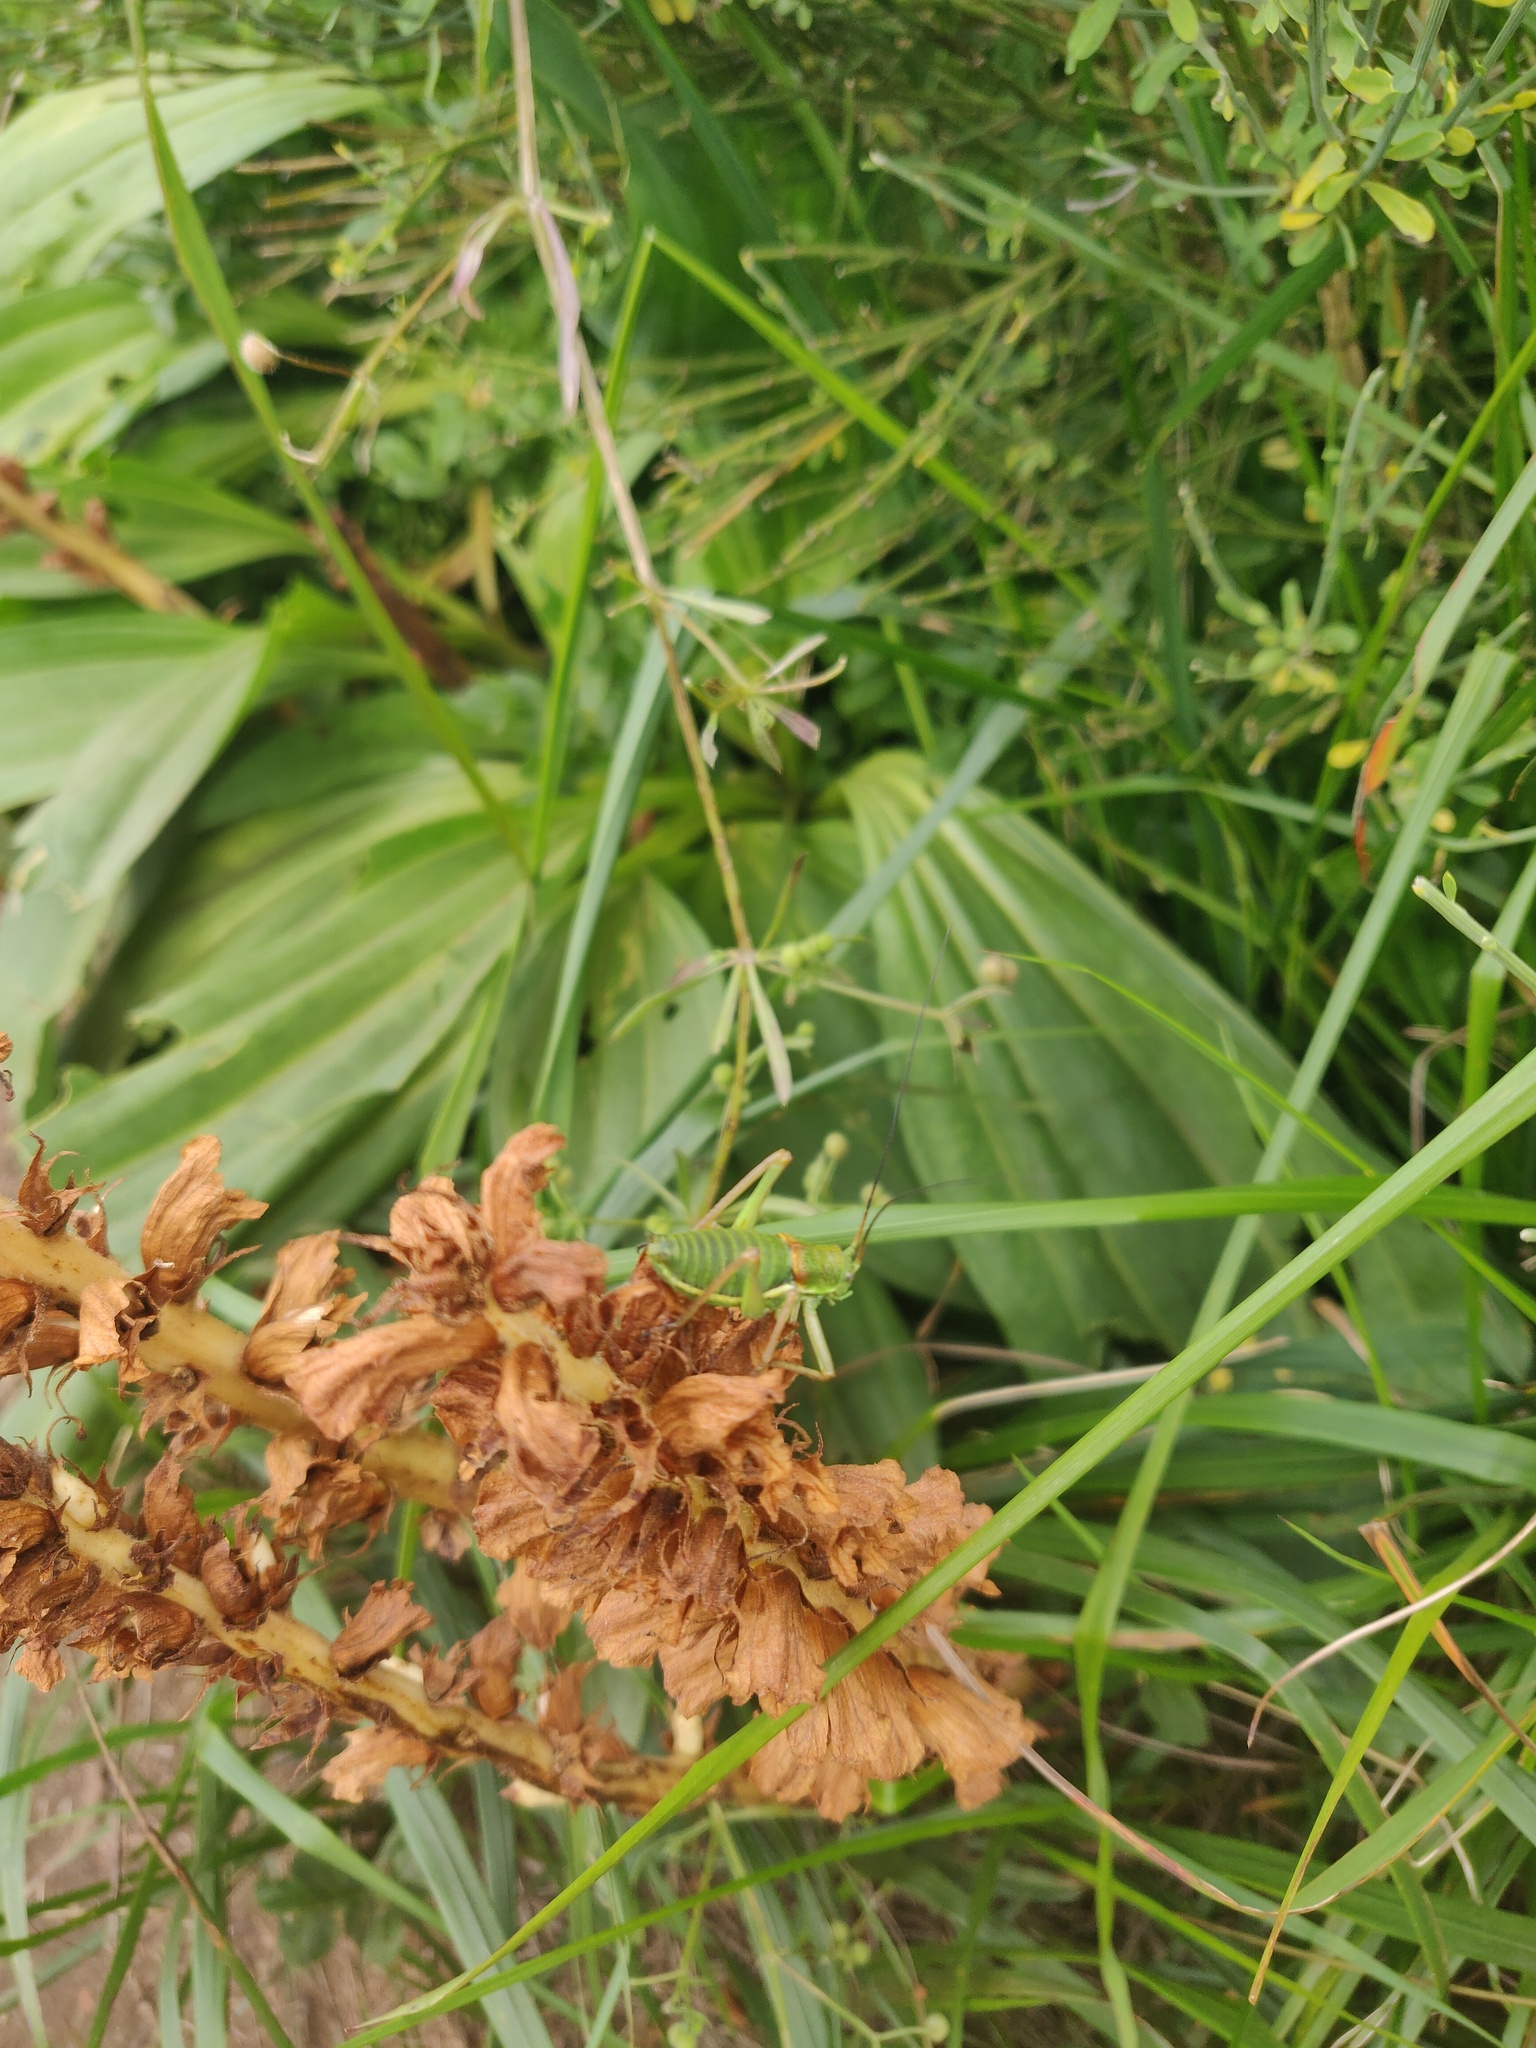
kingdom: Animalia
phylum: Arthropoda
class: Insecta
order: Orthoptera
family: Tettigoniidae
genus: Ephippiger
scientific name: Ephippiger diurnus
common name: Western saddle bush-cricket
